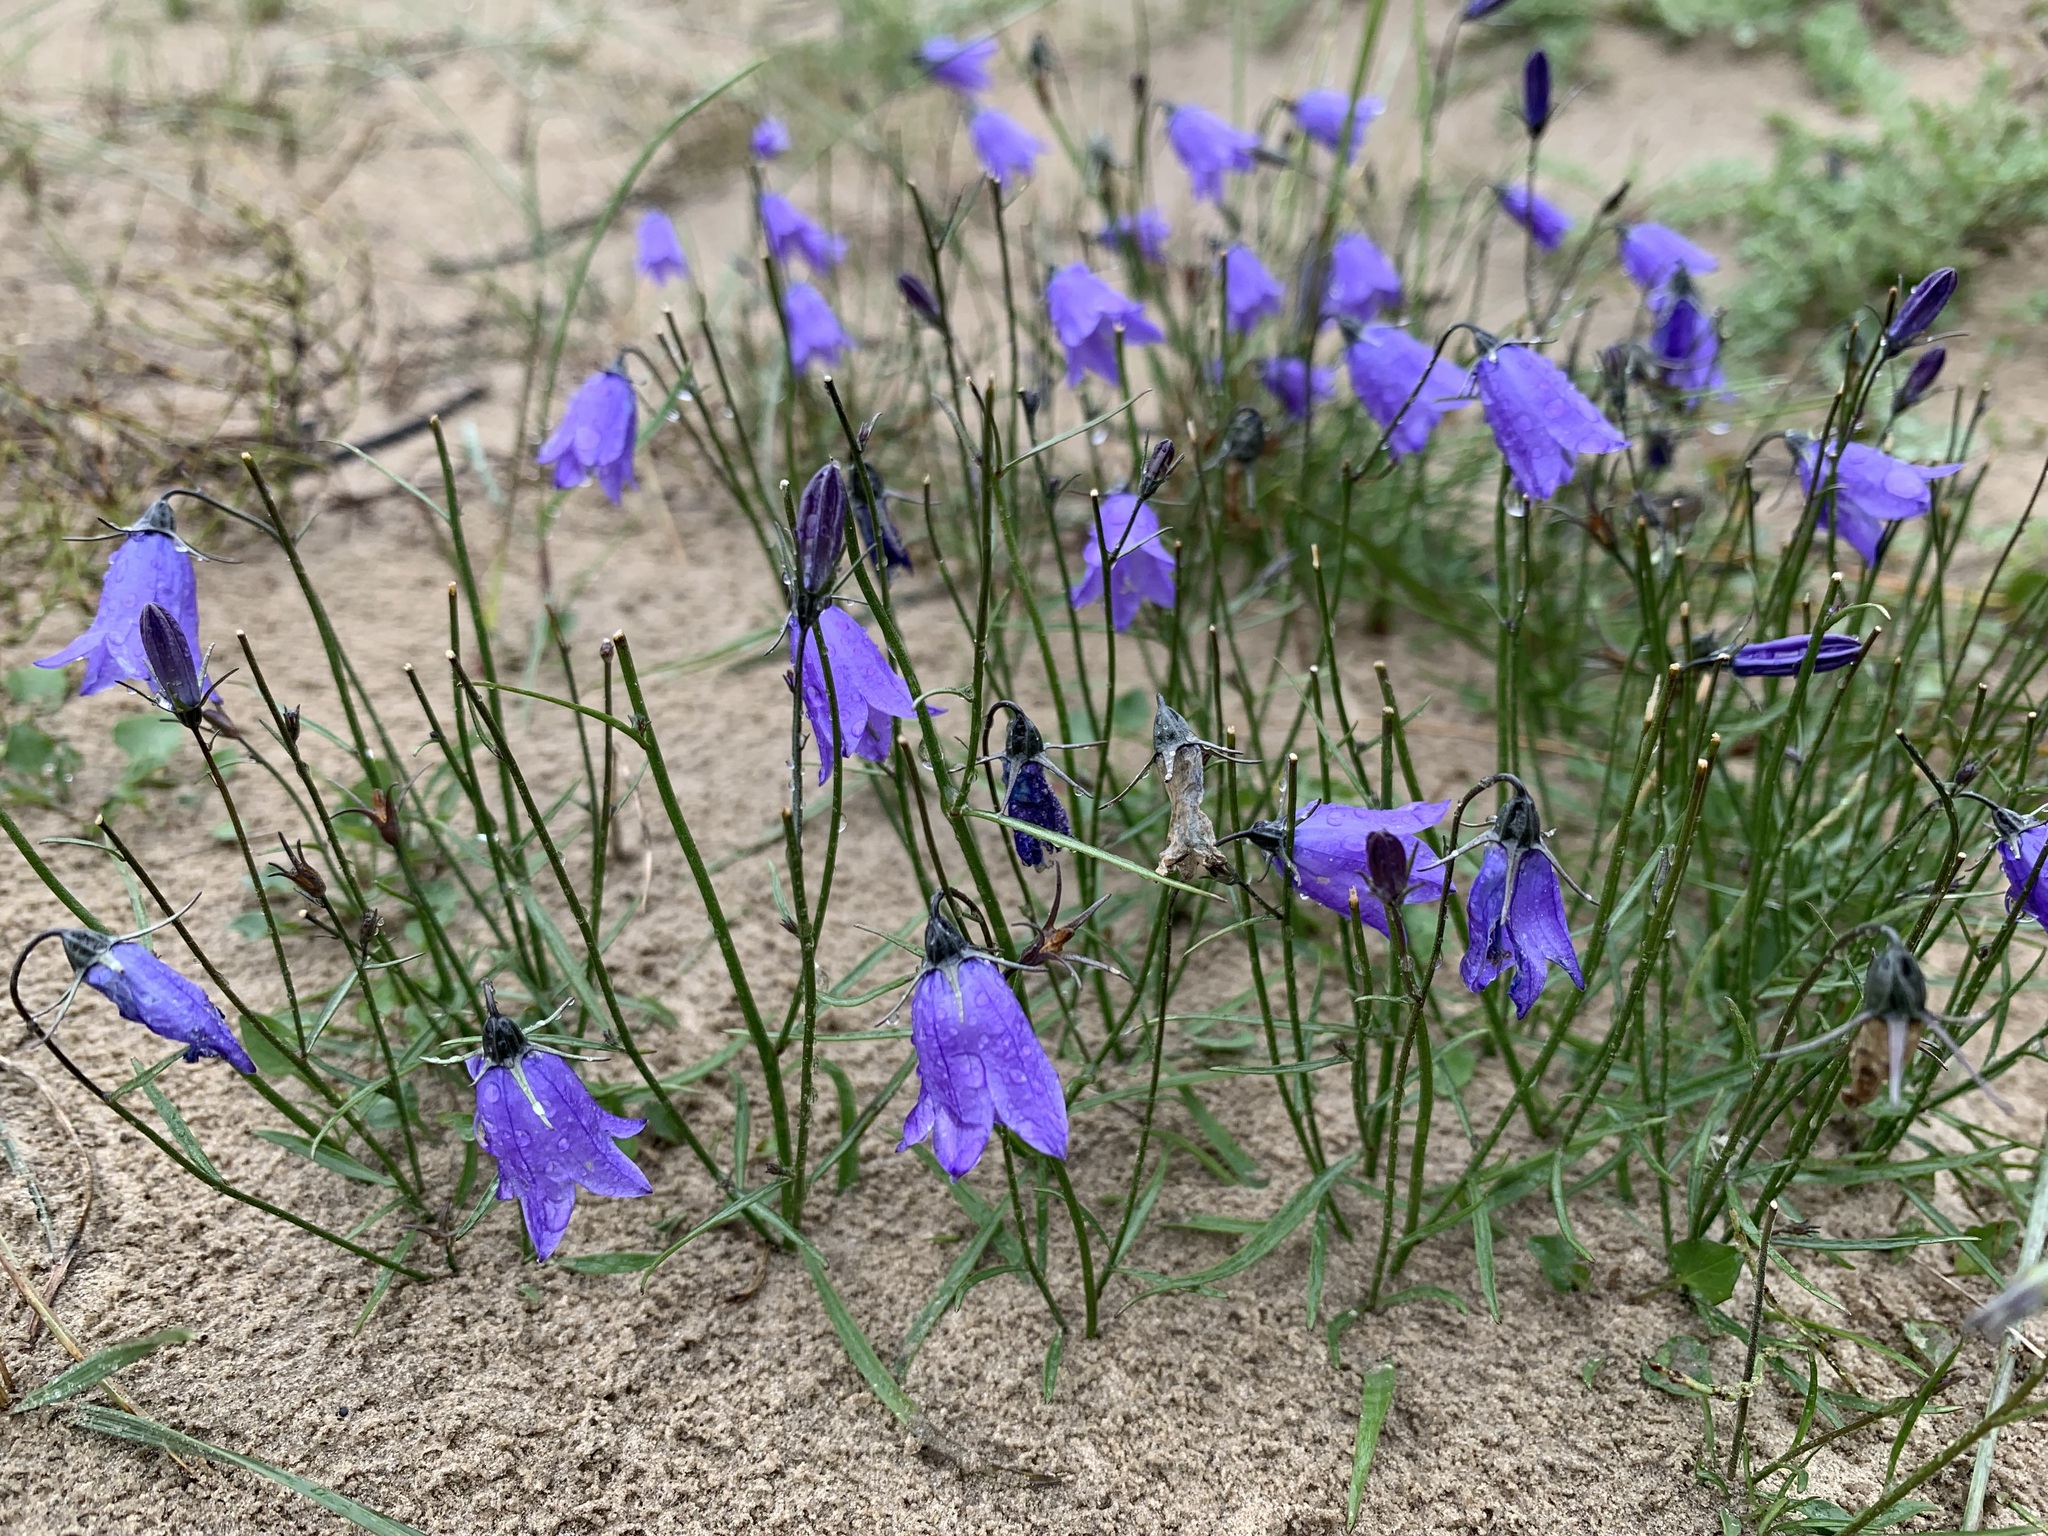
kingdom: Plantae
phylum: Tracheophyta
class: Magnoliopsida
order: Asterales
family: Campanulaceae
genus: Campanula
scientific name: Campanula rotundifolia
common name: Harebell
